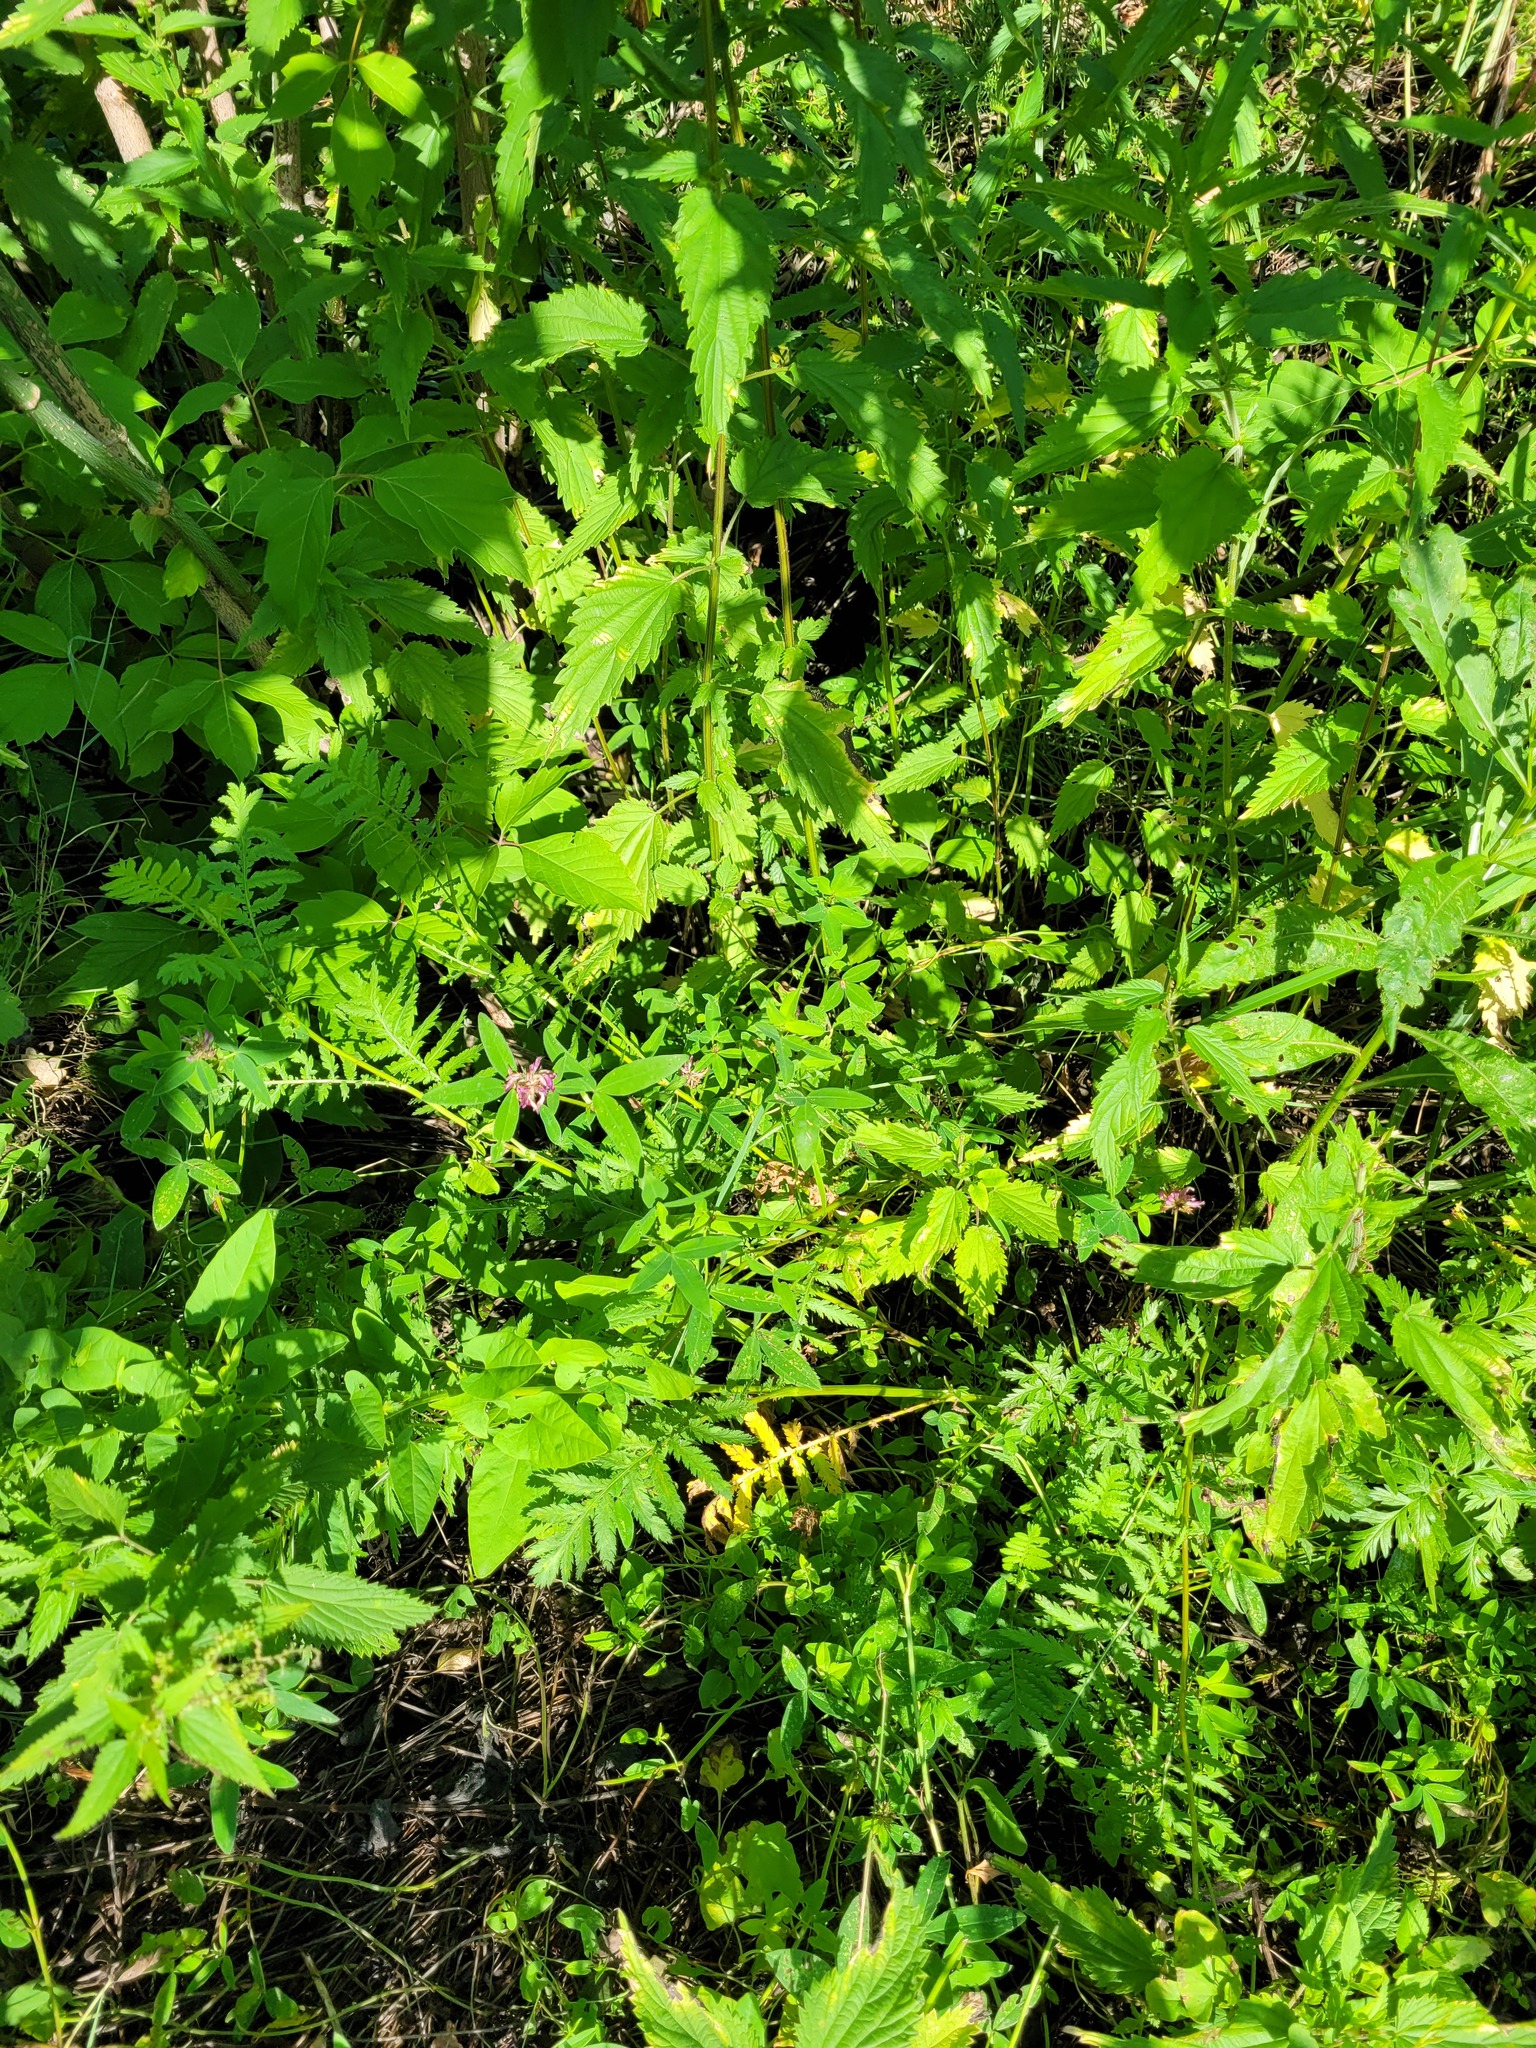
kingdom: Plantae
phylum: Tracheophyta
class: Magnoliopsida
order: Fabales
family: Fabaceae
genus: Trifolium
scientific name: Trifolium medium
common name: Zigzag clover
